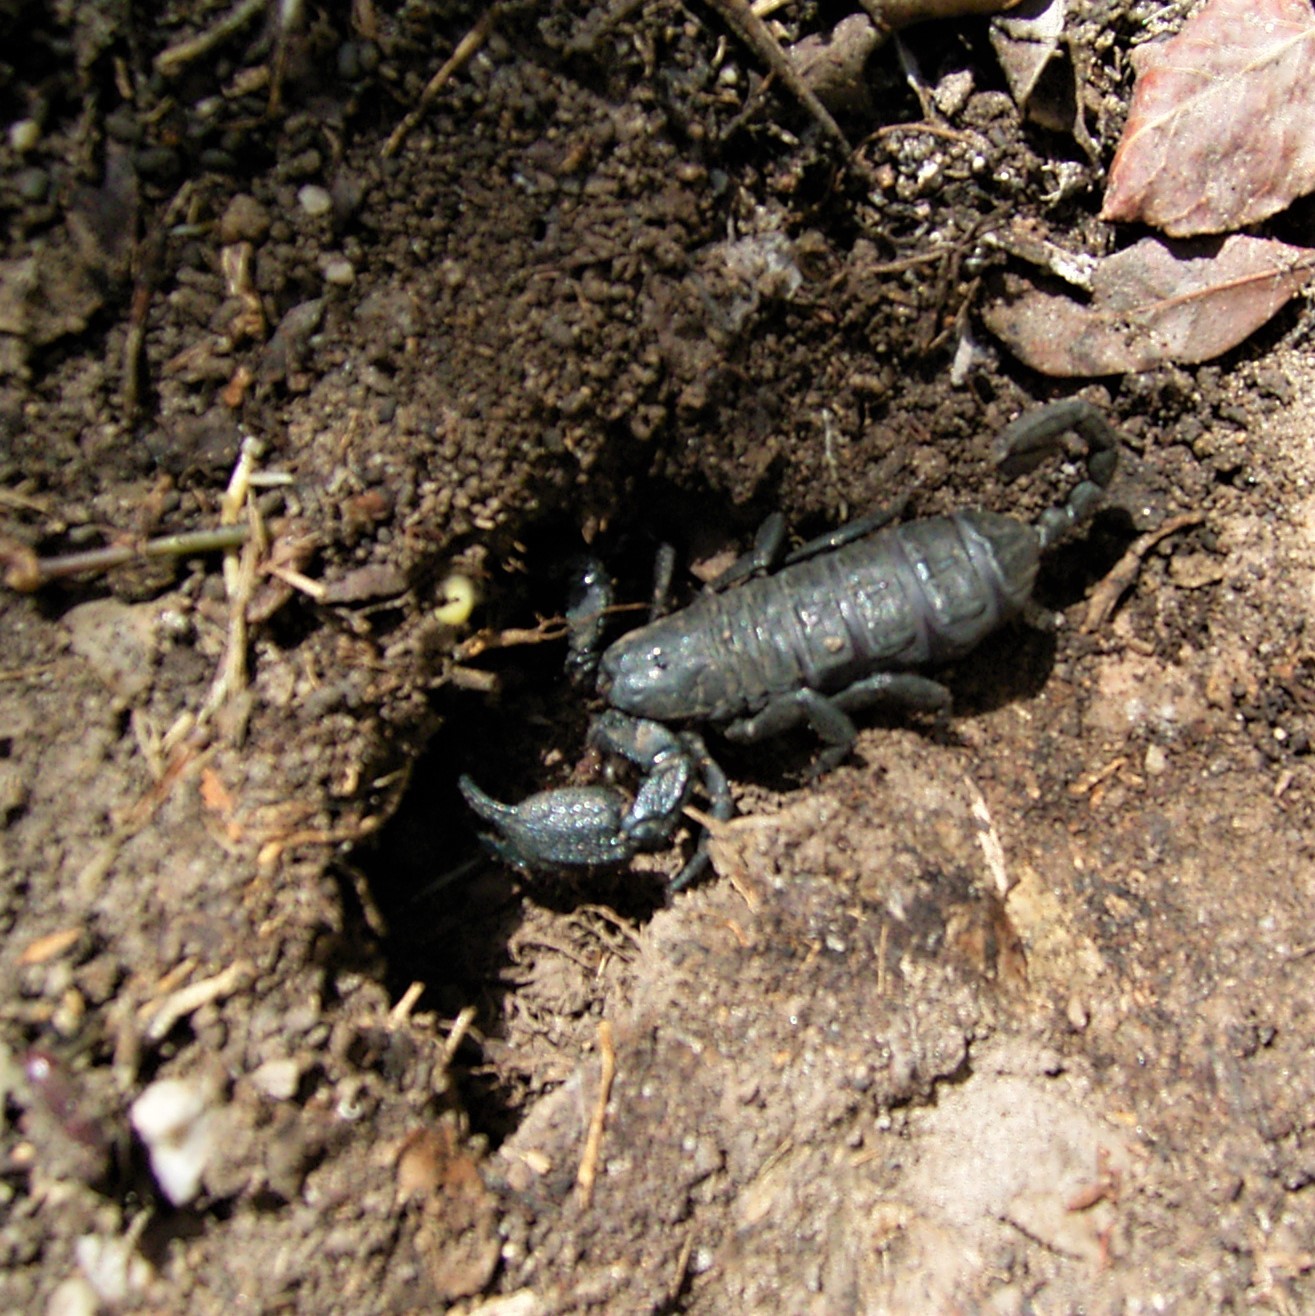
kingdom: Animalia
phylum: Arthropoda
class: Arachnida
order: Scorpiones
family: Hormuridae
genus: Opisthacanthus
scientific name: Opisthacanthus capensis
